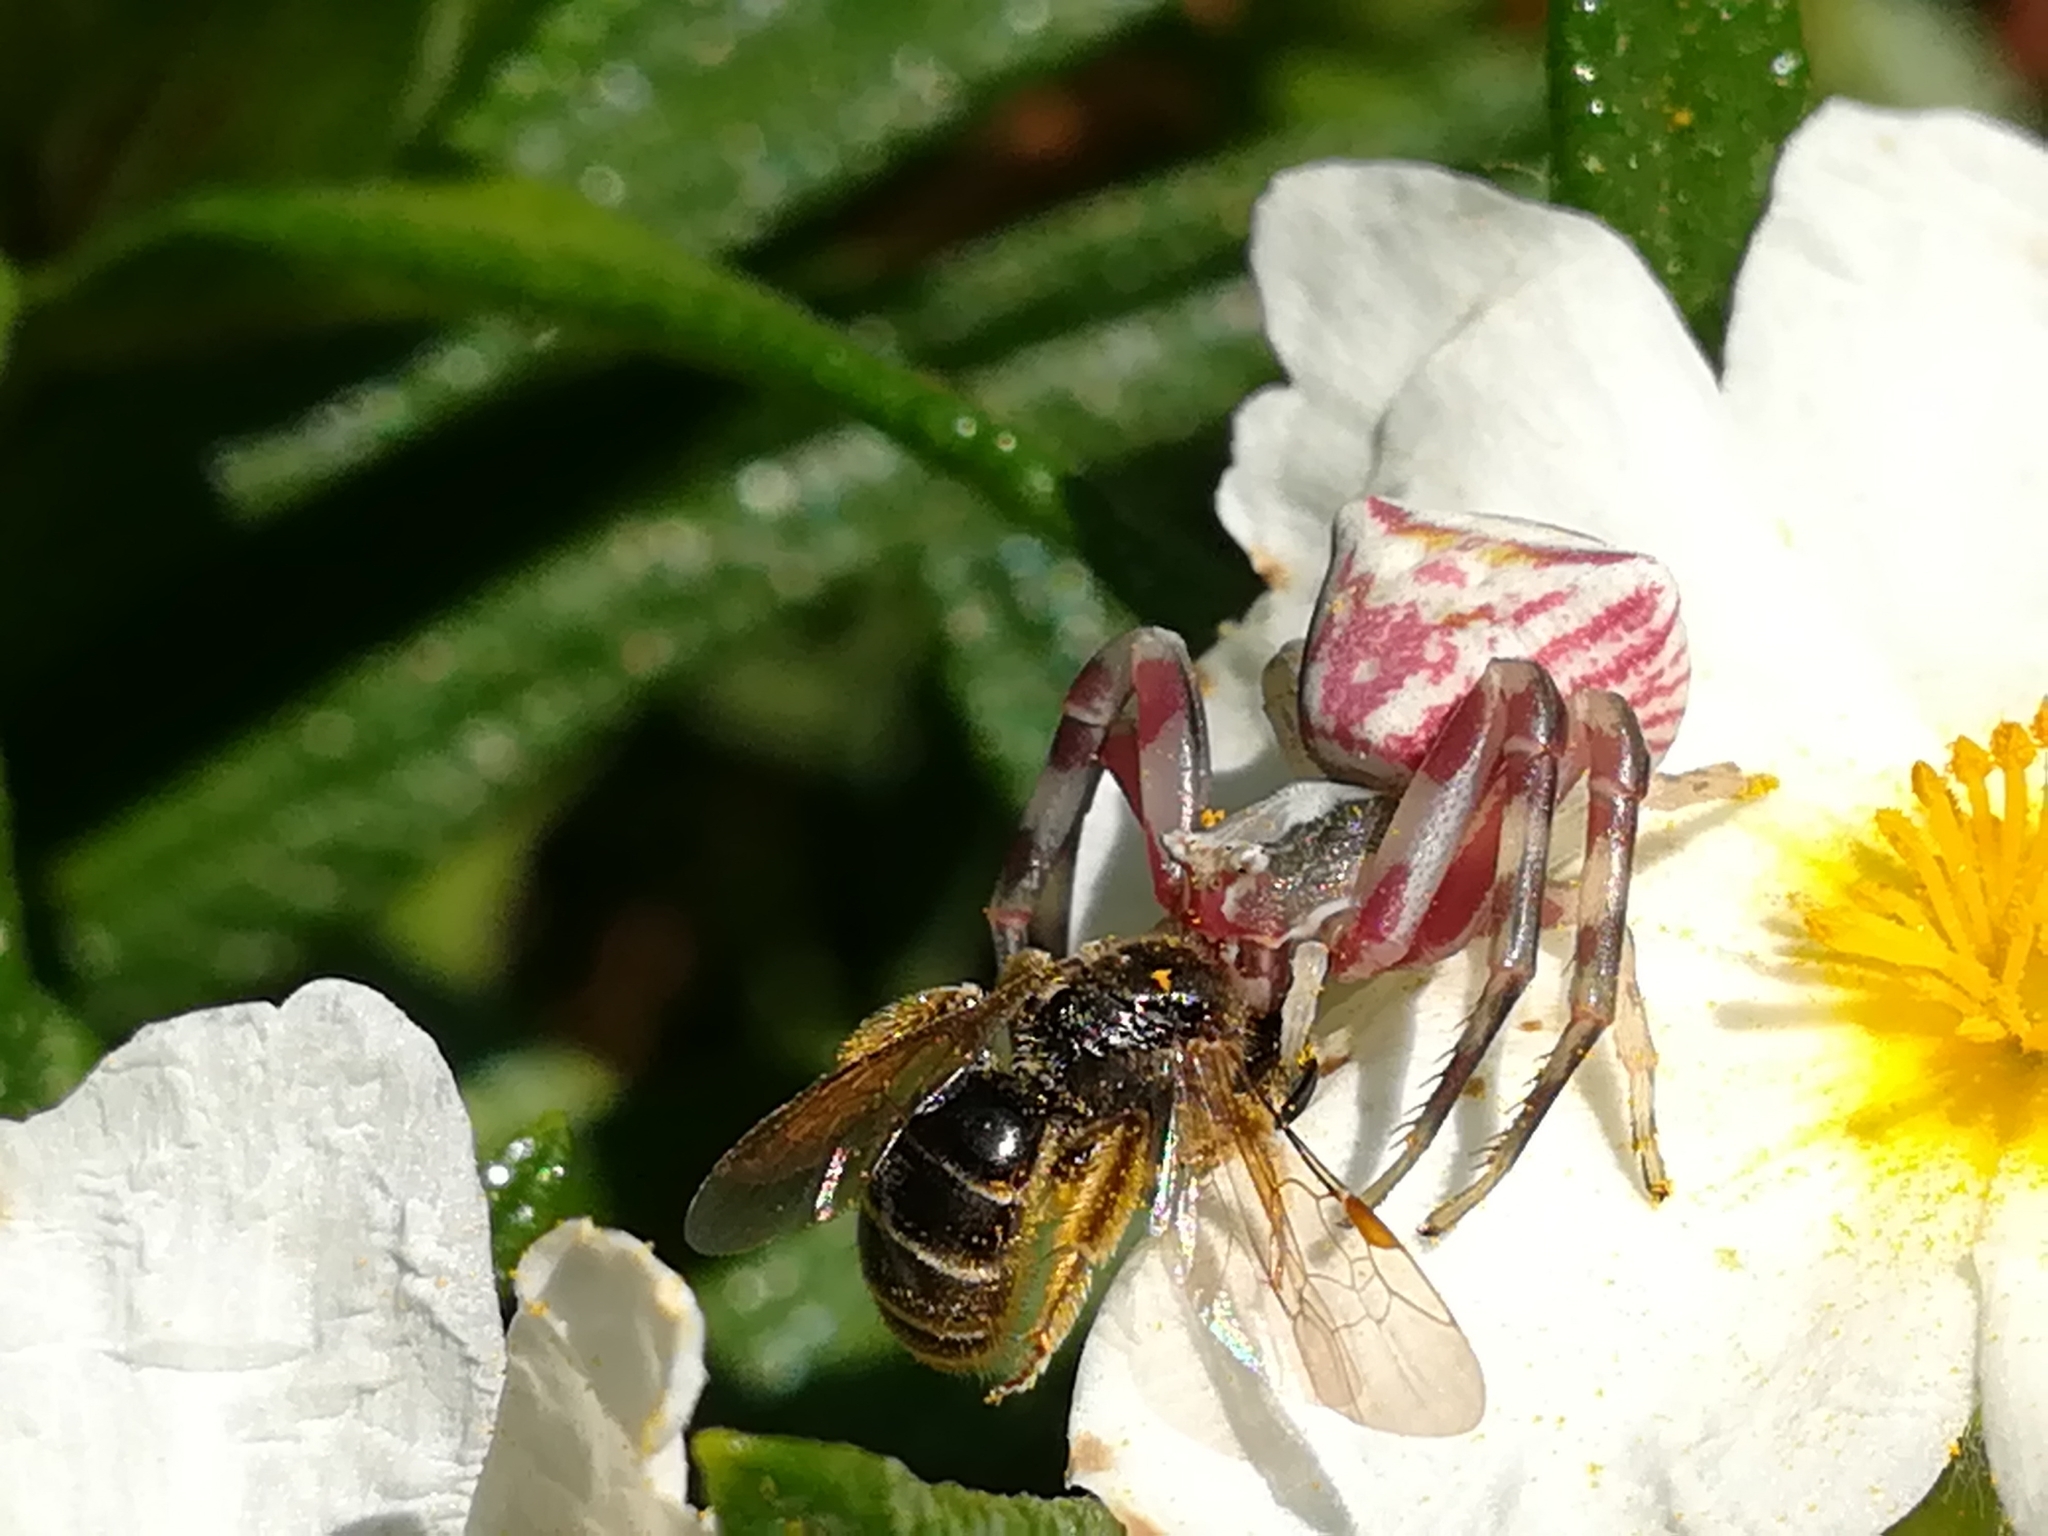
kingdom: Animalia
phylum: Arthropoda
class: Arachnida
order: Araneae
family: Thomisidae
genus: Thomisus
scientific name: Thomisus onustus
